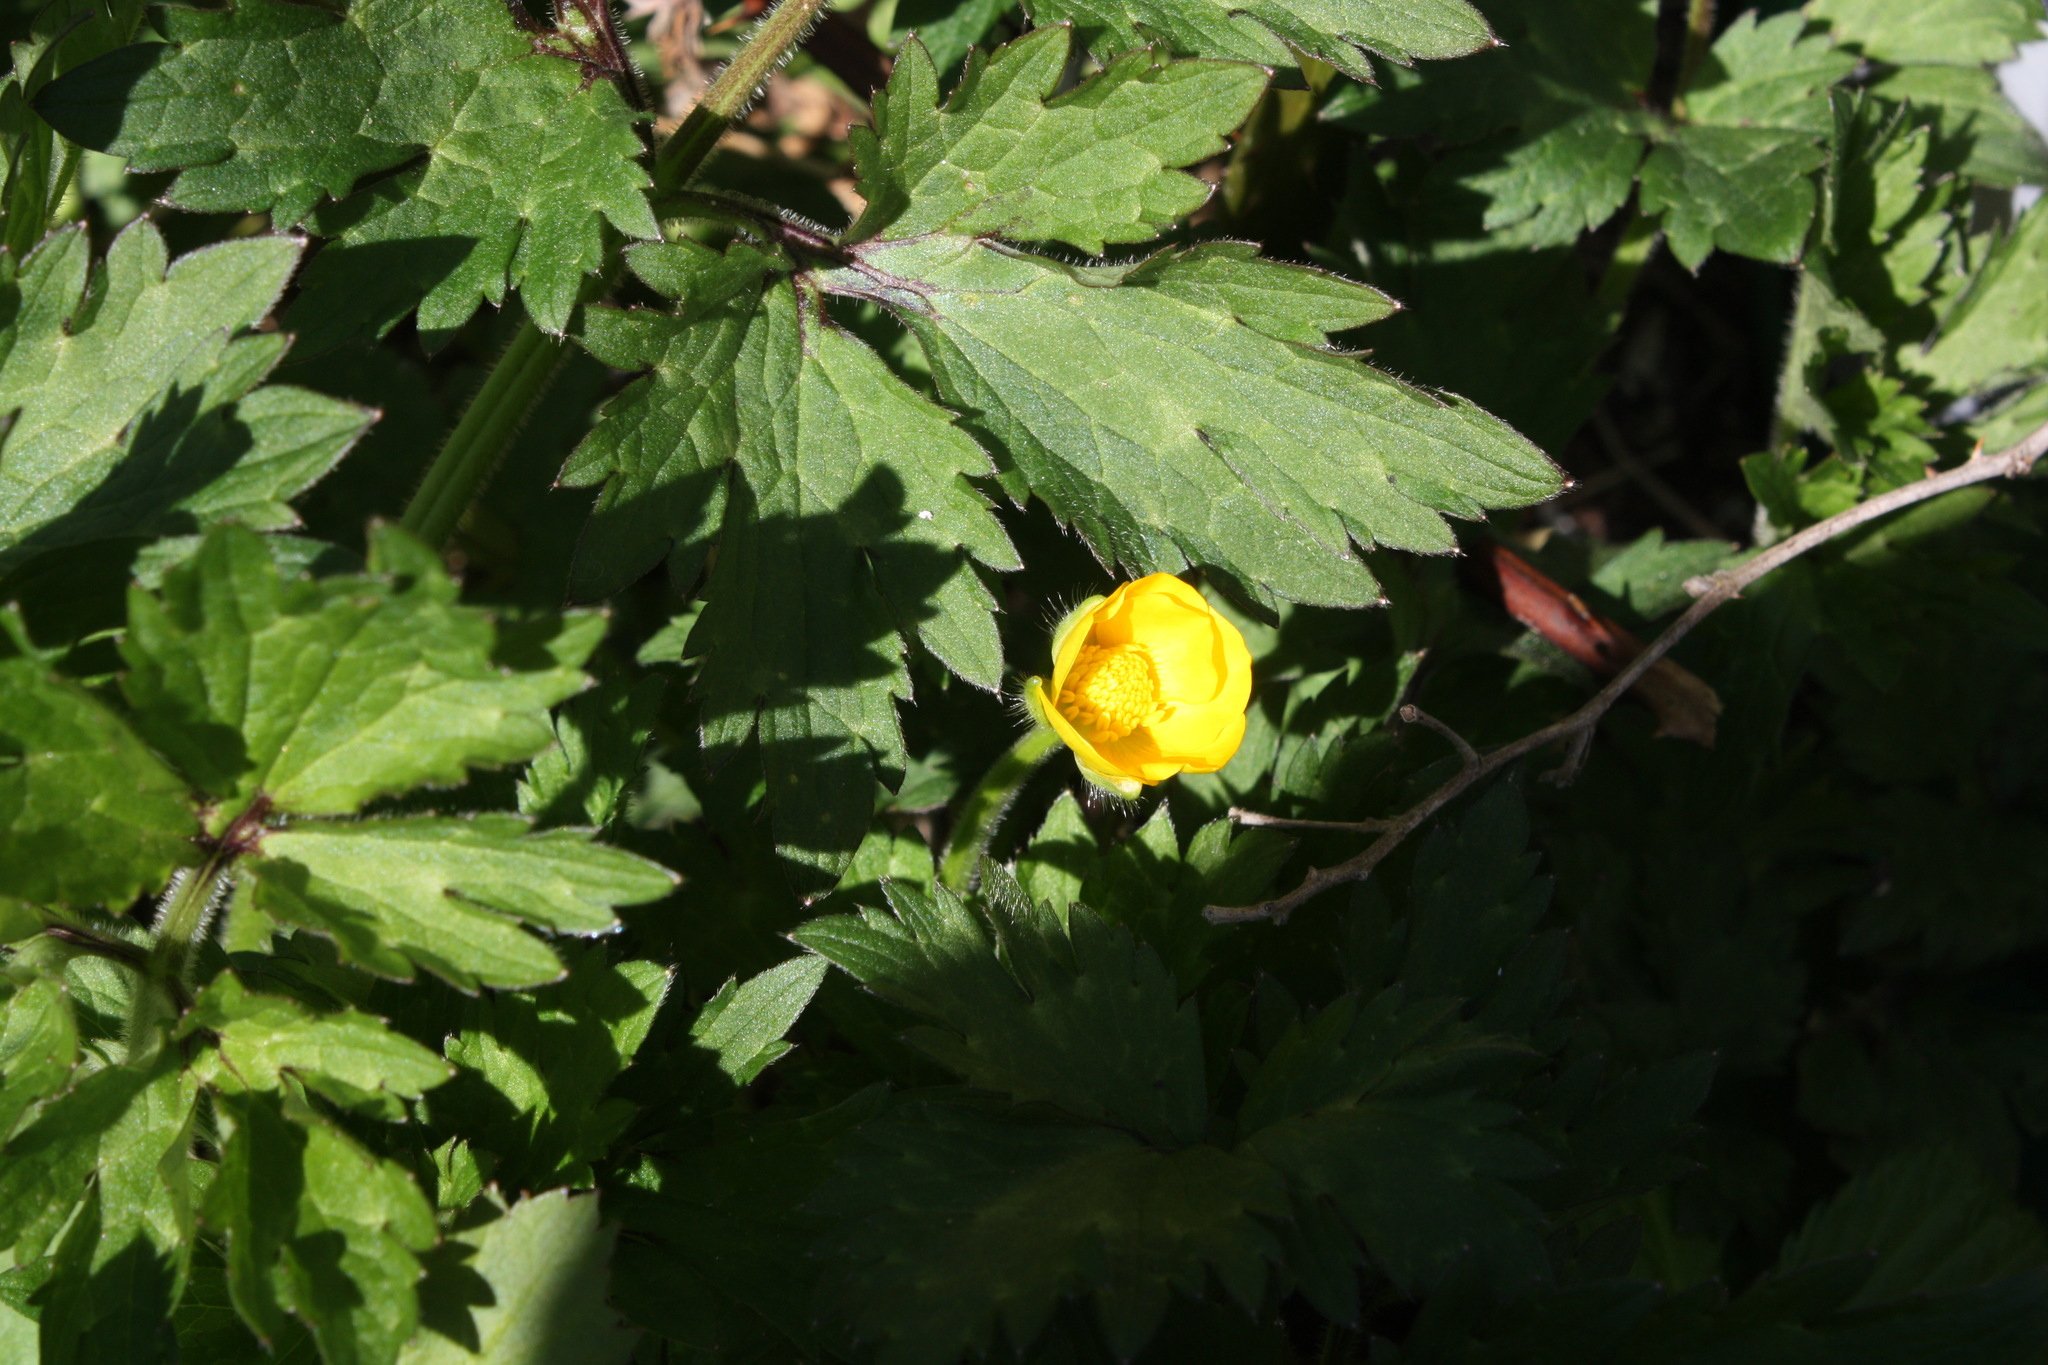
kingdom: Plantae
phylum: Tracheophyta
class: Magnoliopsida
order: Ranunculales
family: Ranunculaceae
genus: Ranunculus
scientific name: Ranunculus repens
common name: Creeping buttercup
